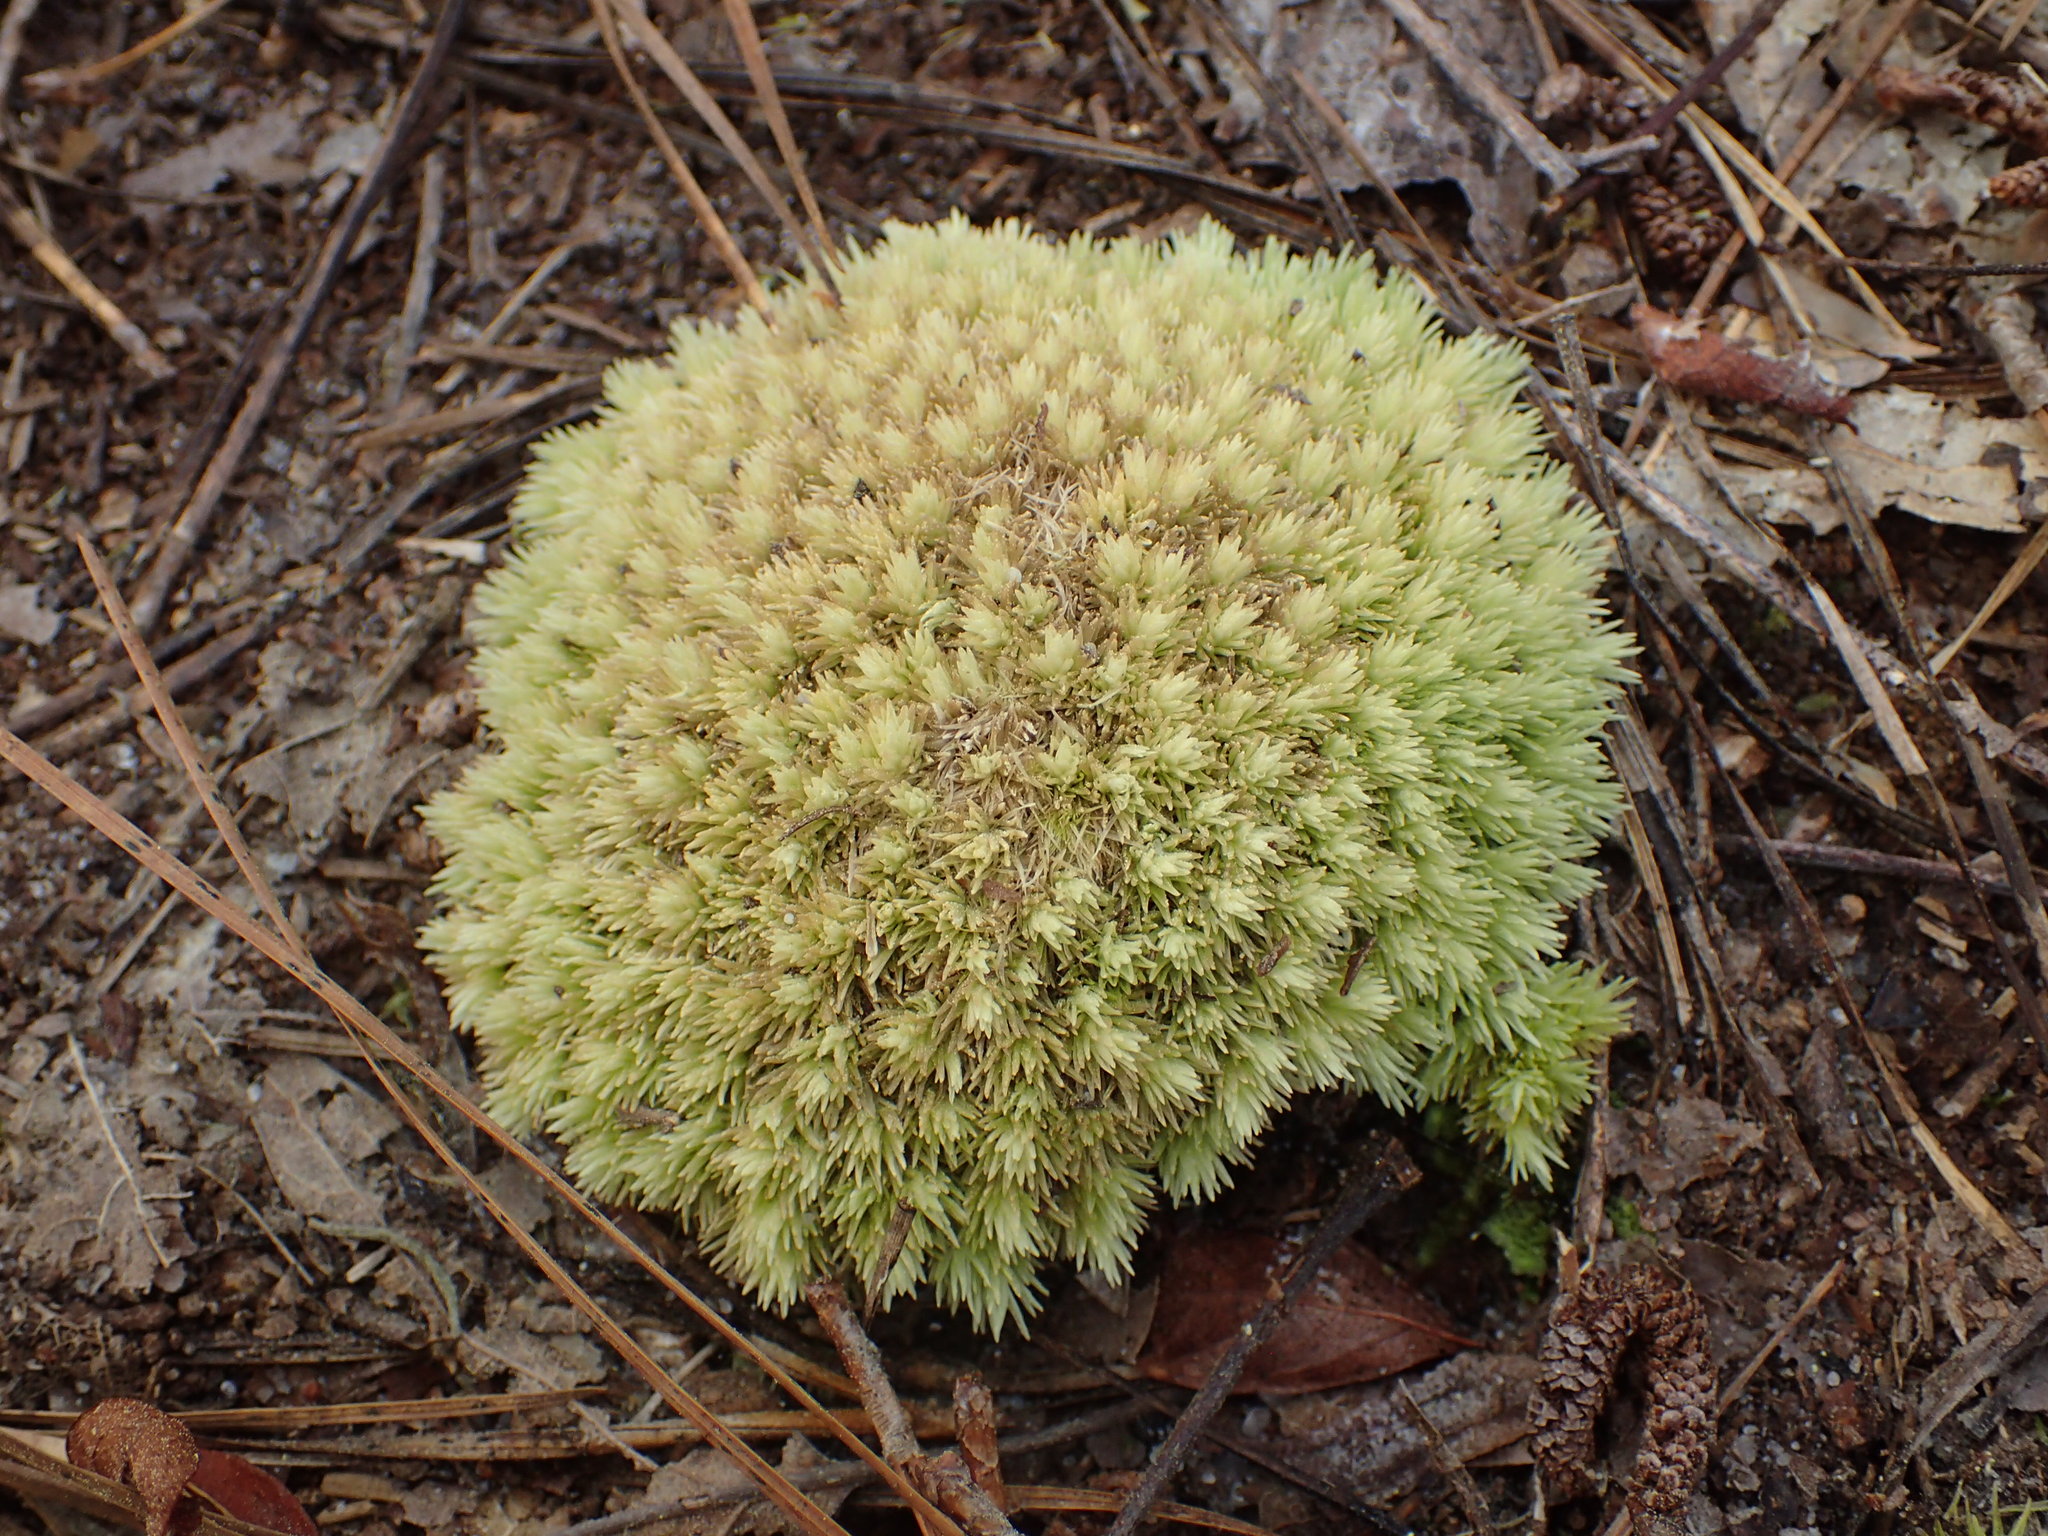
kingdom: Plantae
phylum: Bryophyta
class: Bryopsida
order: Dicranales
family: Leucobryaceae
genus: Leucobryum
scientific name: Leucobryum glaucum
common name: Large white-moss
